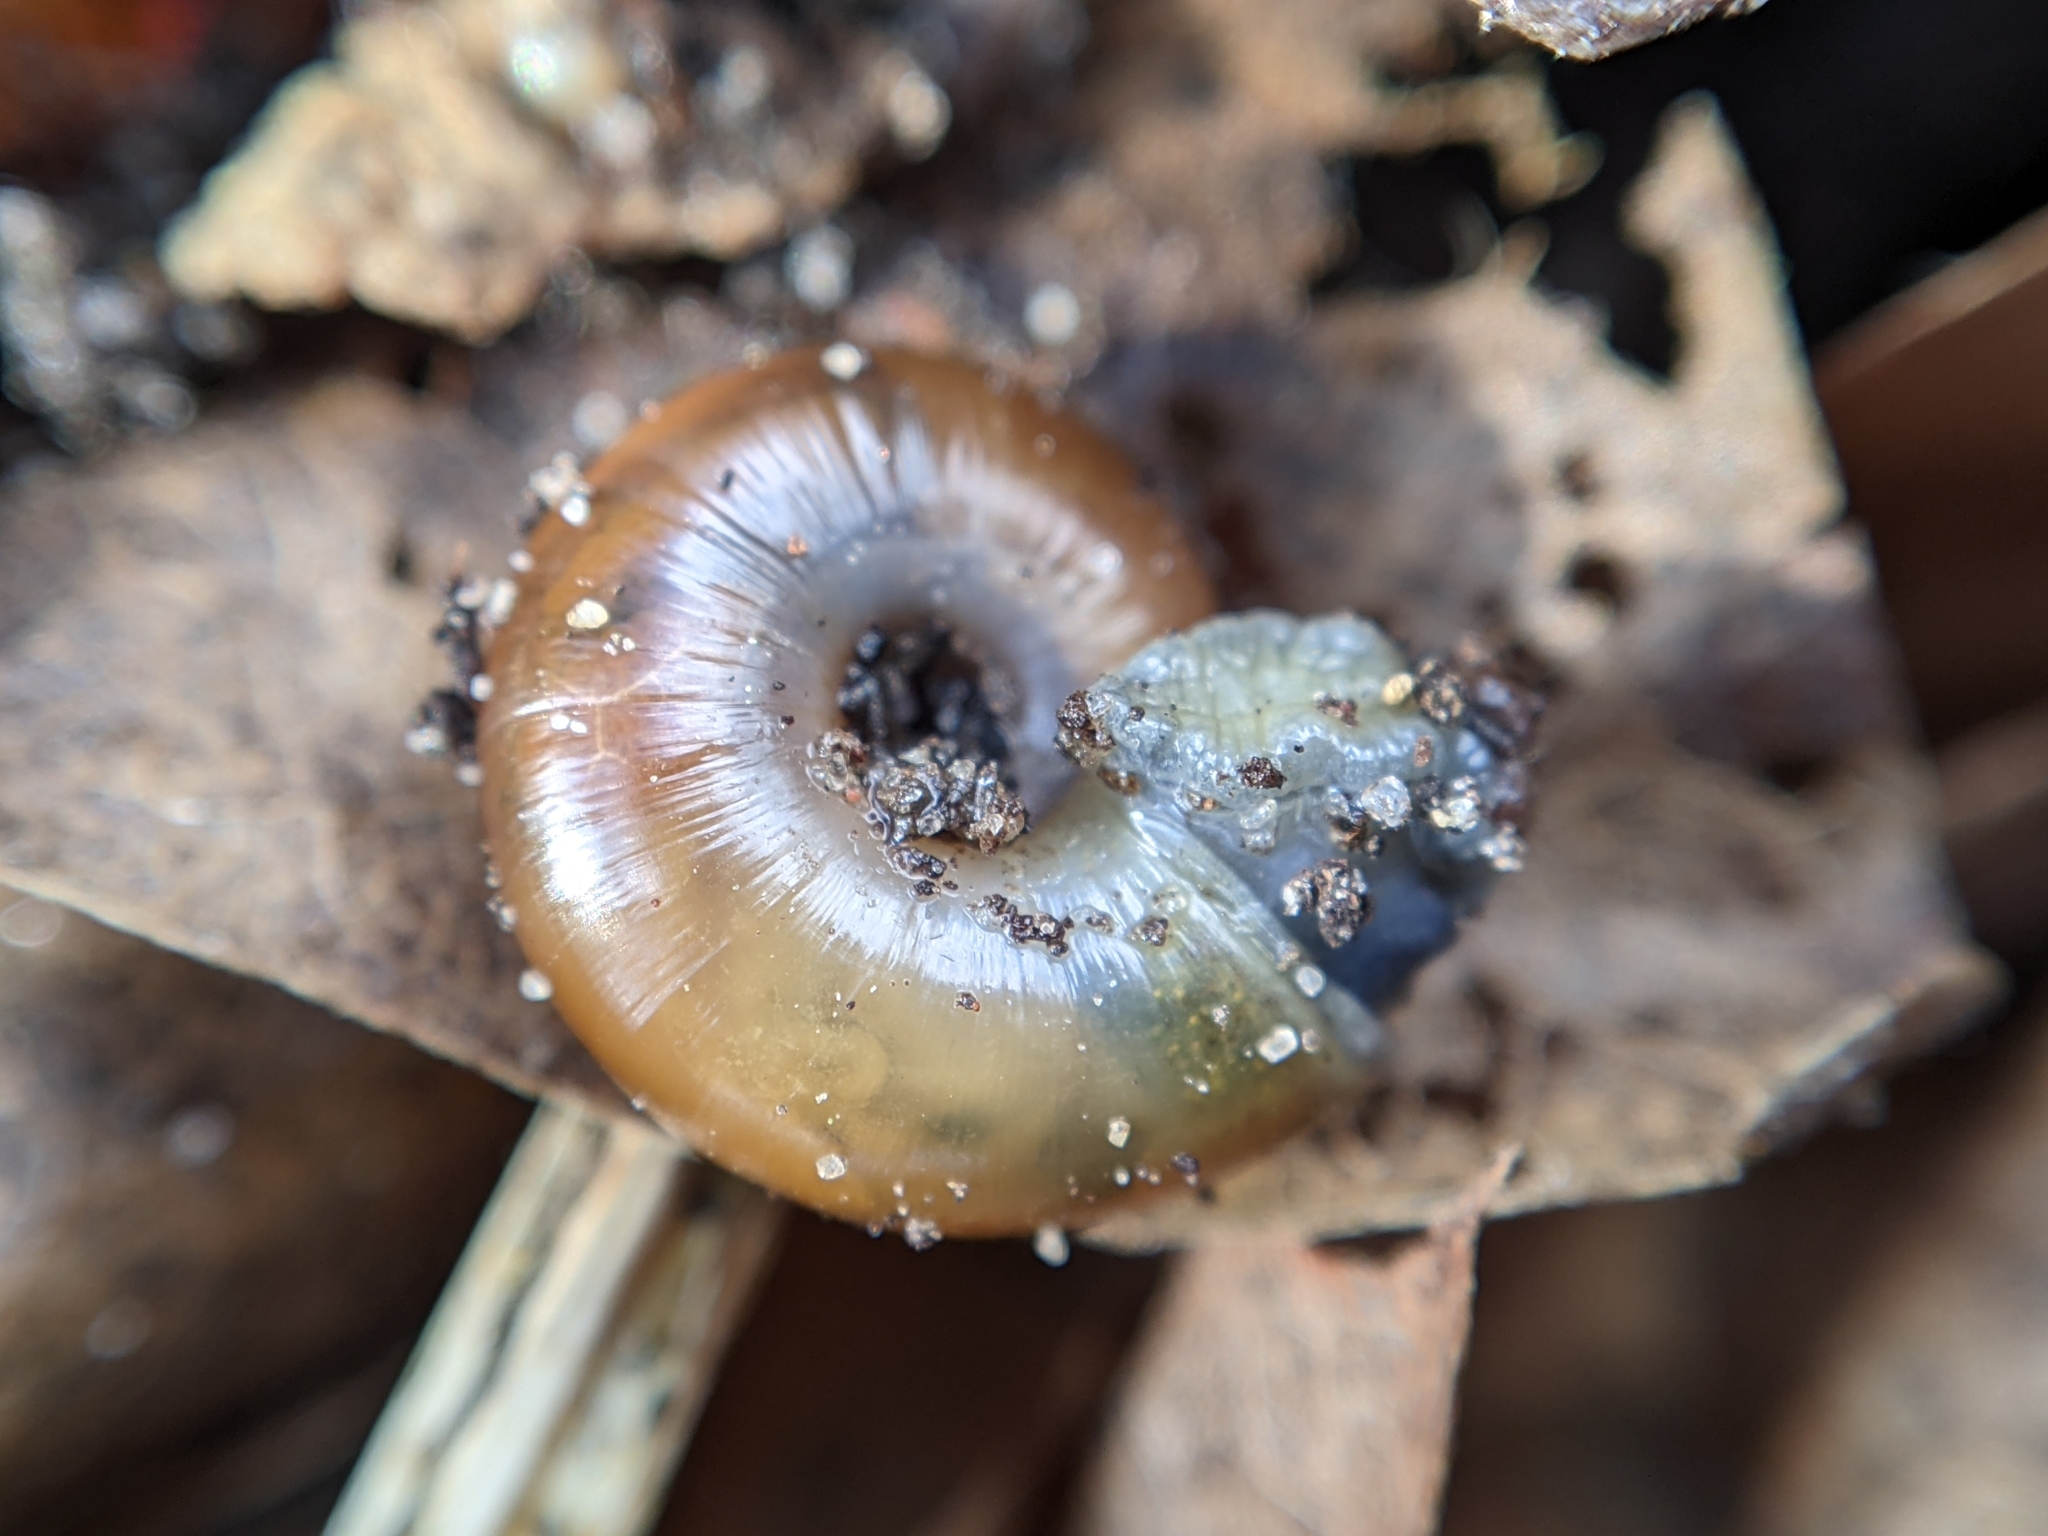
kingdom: Animalia
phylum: Mollusca
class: Gastropoda
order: Stylommatophora
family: Gastrodontidae
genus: Aegopinella
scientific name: Aegopinella nitidula
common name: Smooth glass snail
